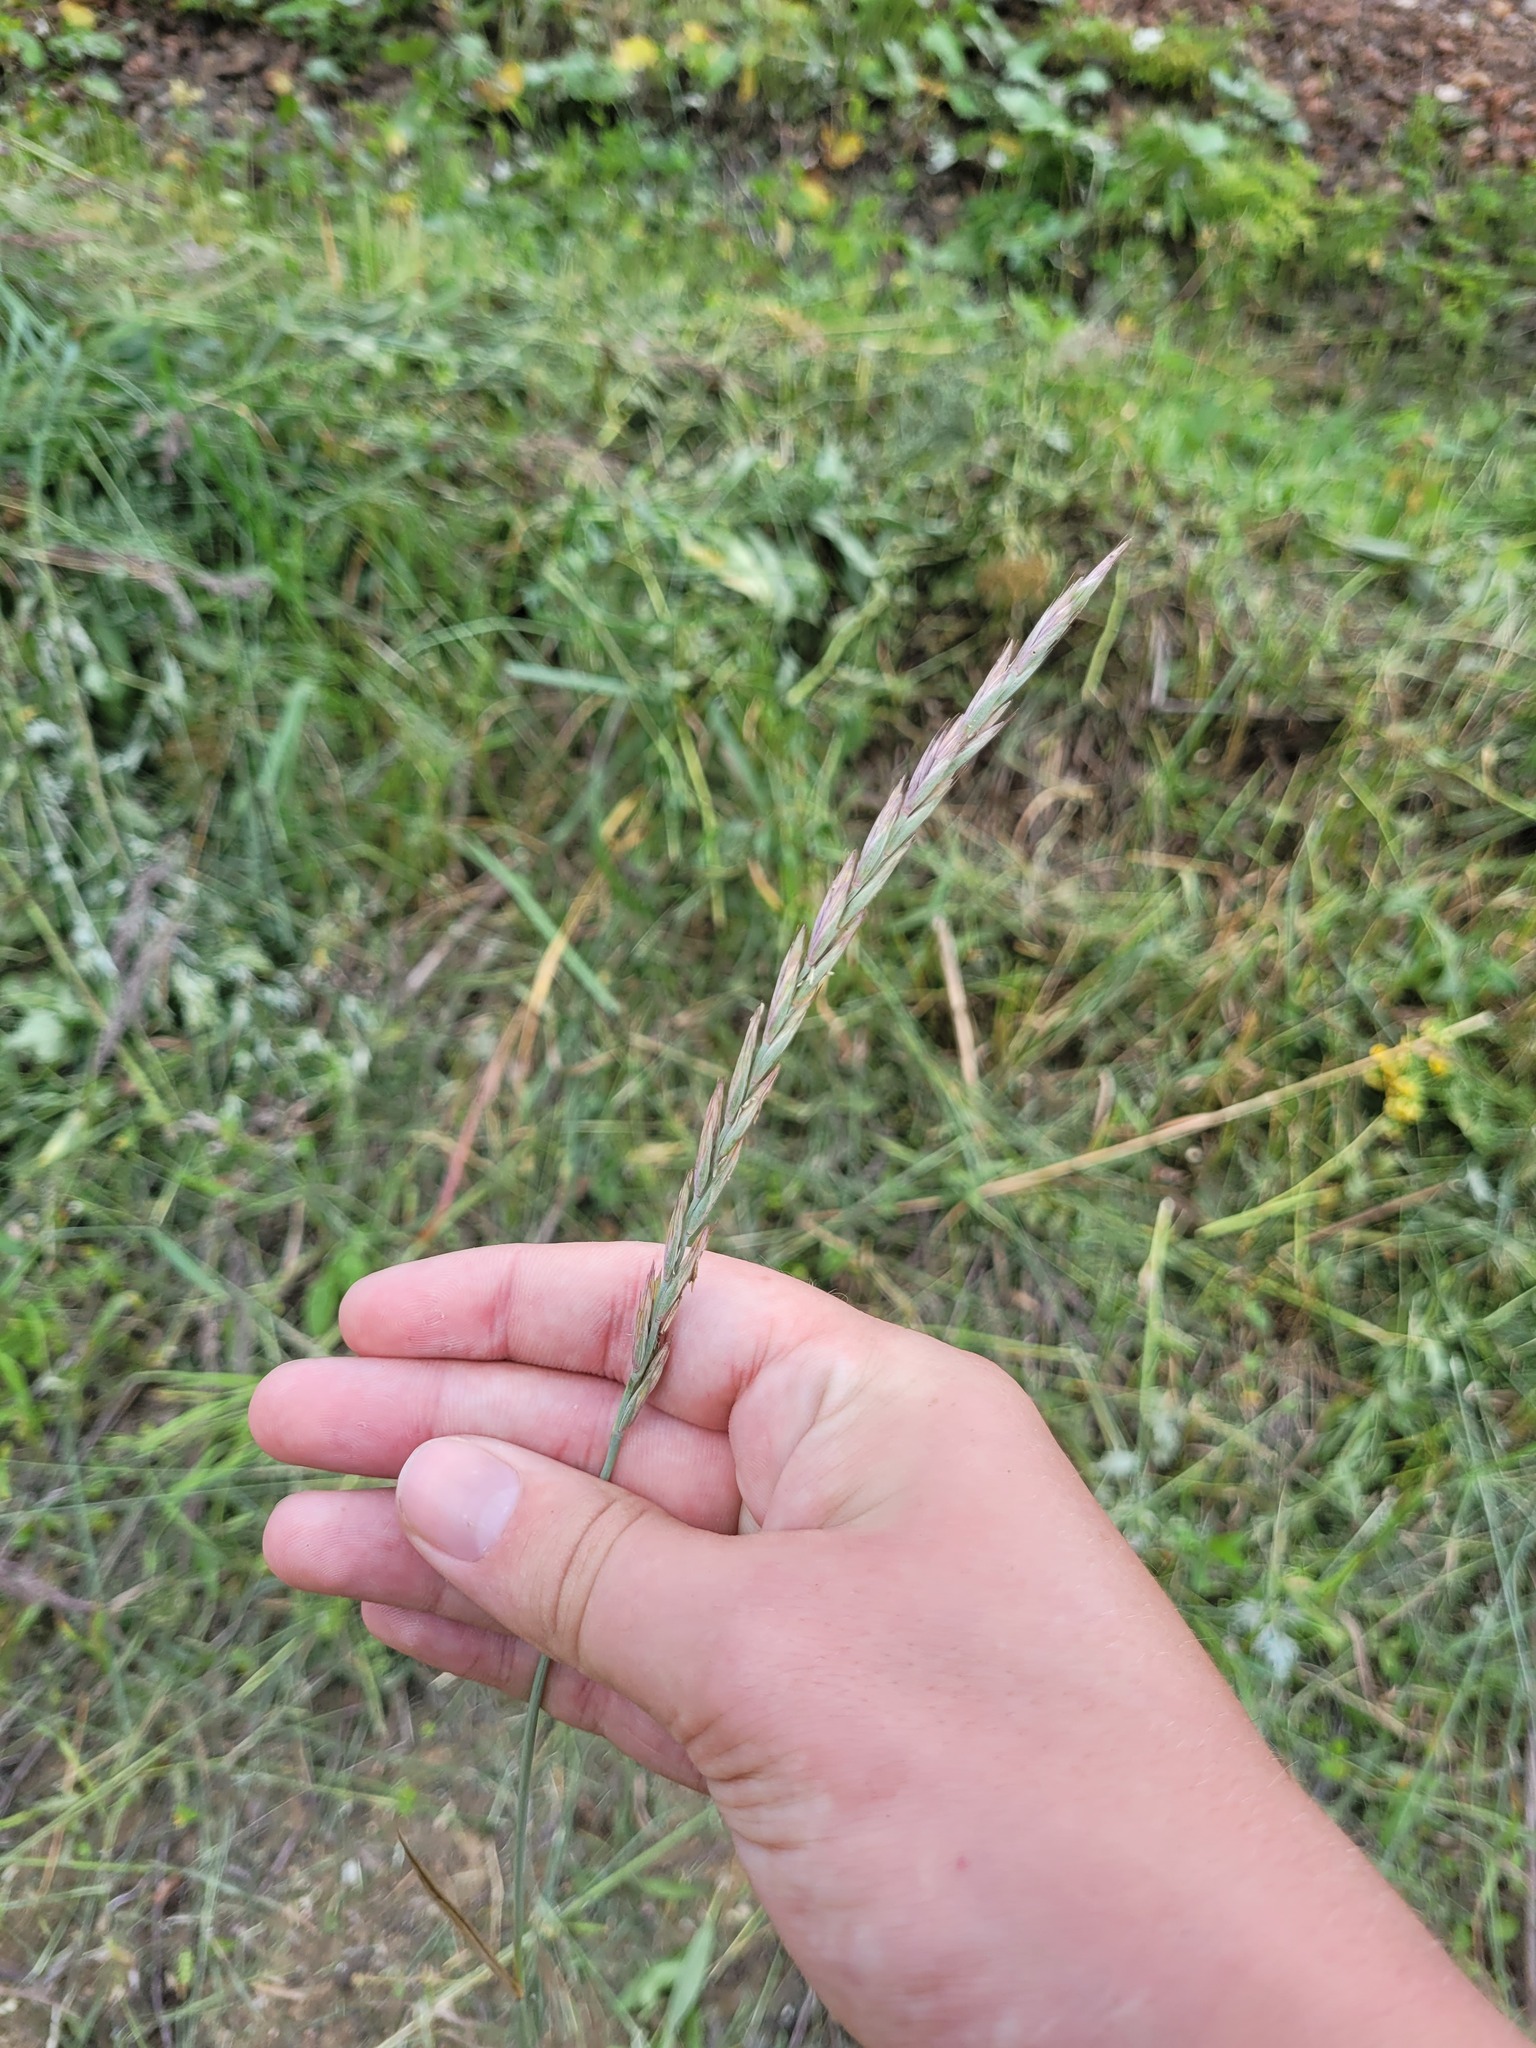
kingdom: Plantae
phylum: Tracheophyta
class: Liliopsida
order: Poales
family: Poaceae
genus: Elymus
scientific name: Elymus repens
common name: Quackgrass
